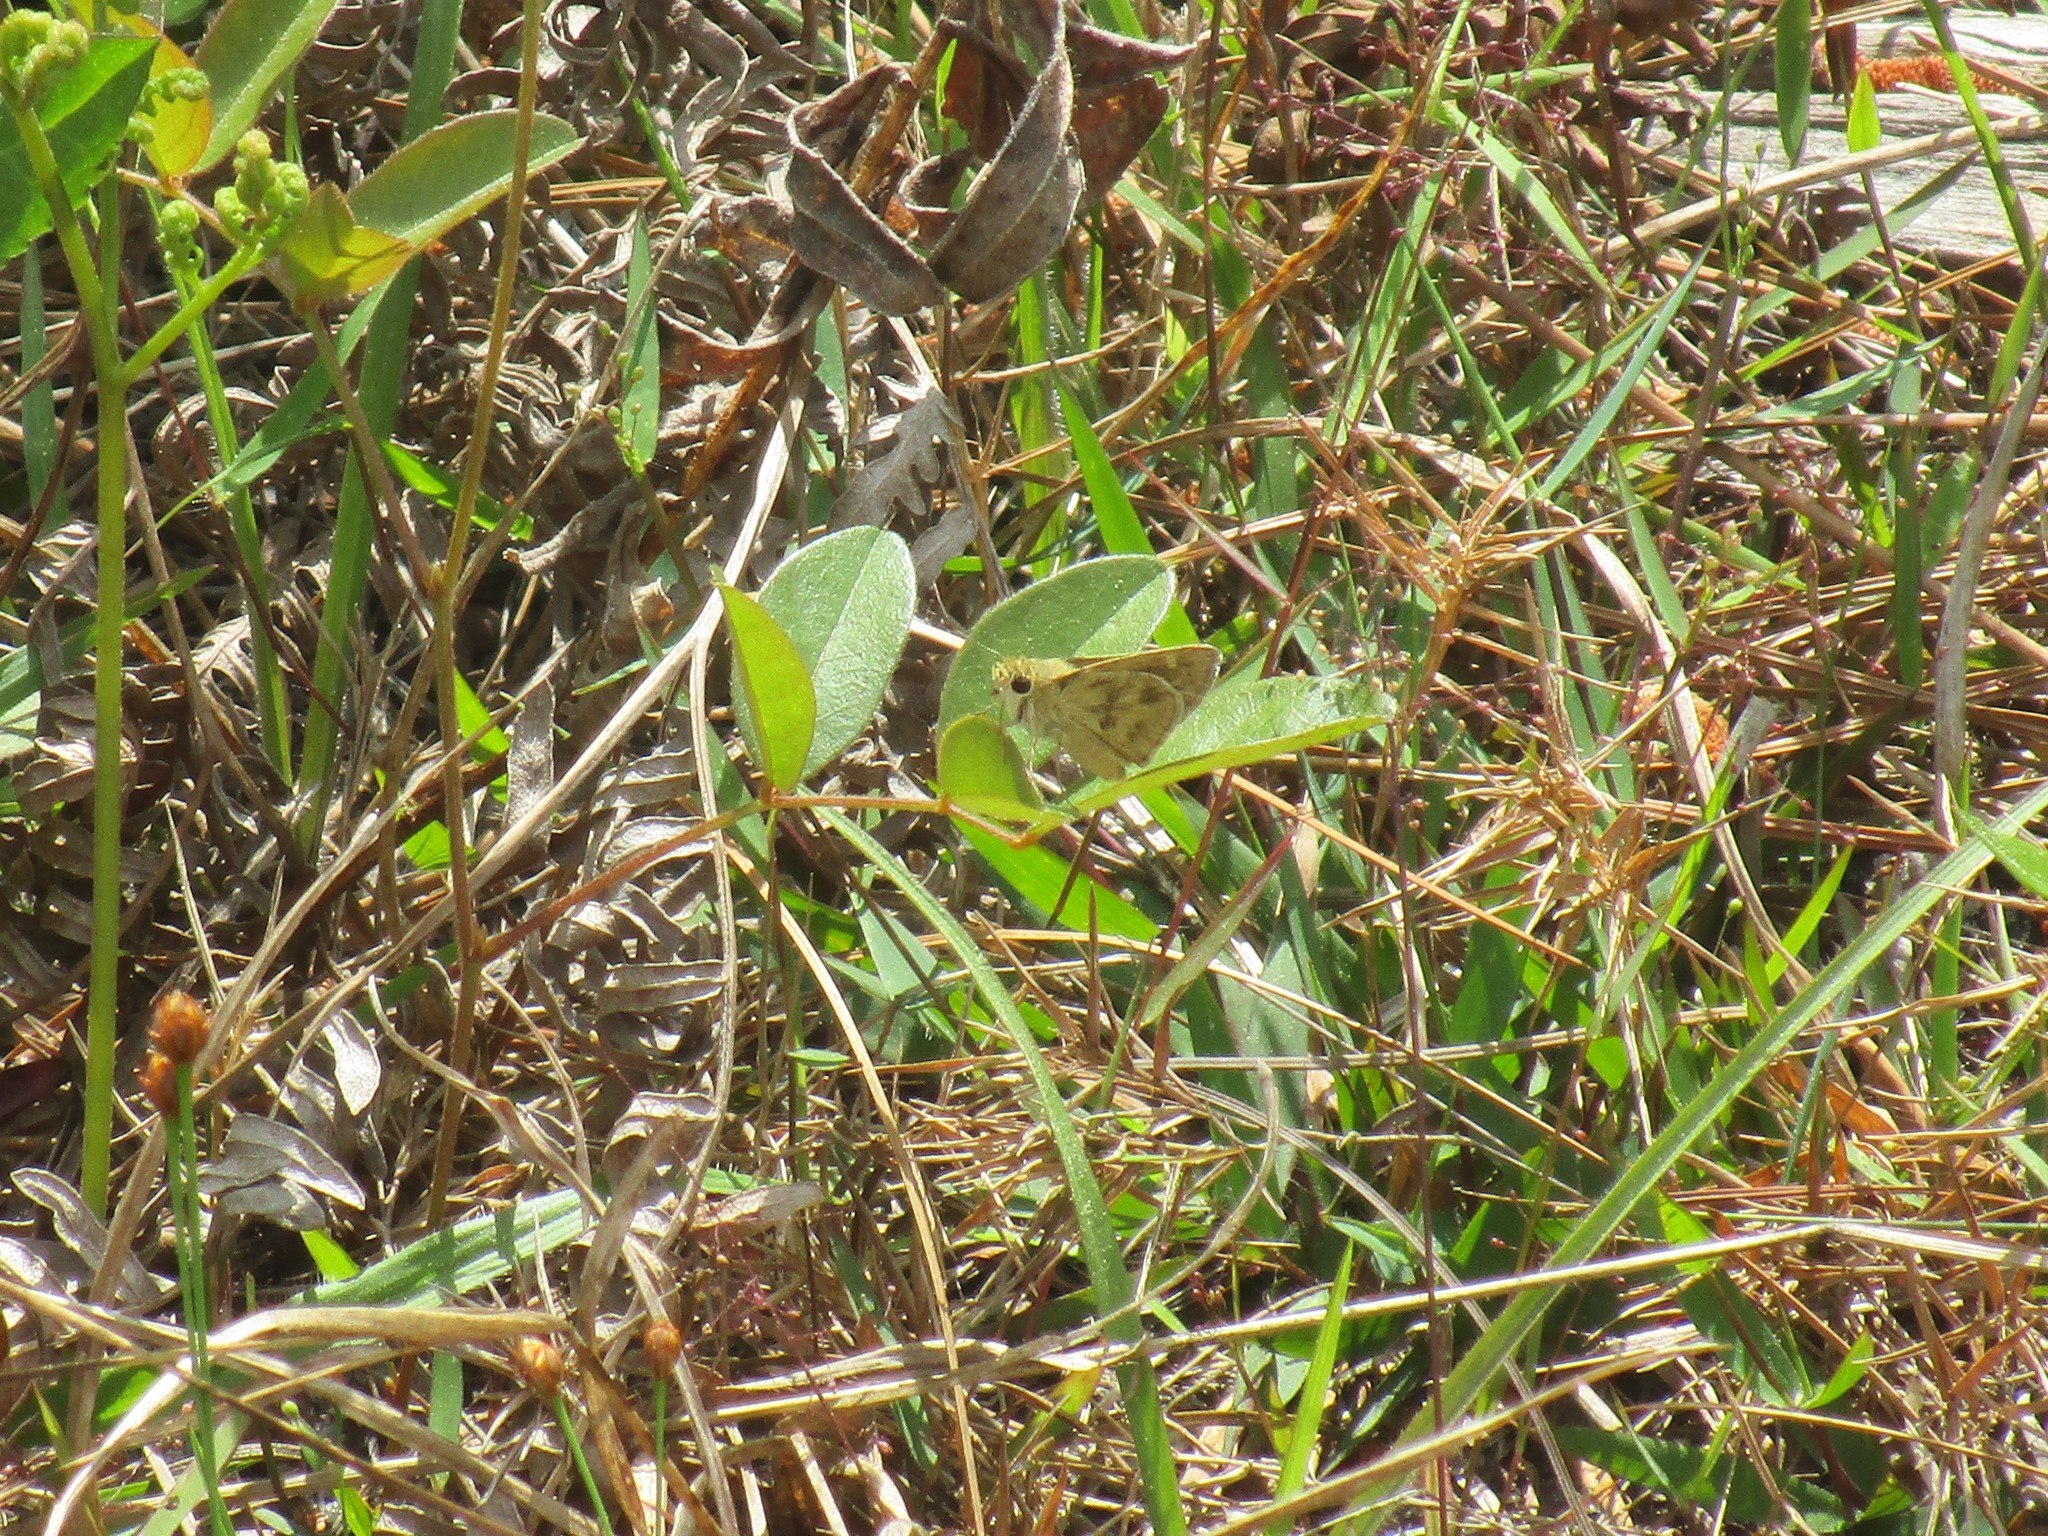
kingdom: Animalia
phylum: Arthropoda
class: Insecta
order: Lepidoptera
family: Hesperiidae
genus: Polites
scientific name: Polites vibex
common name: Whirlabout
